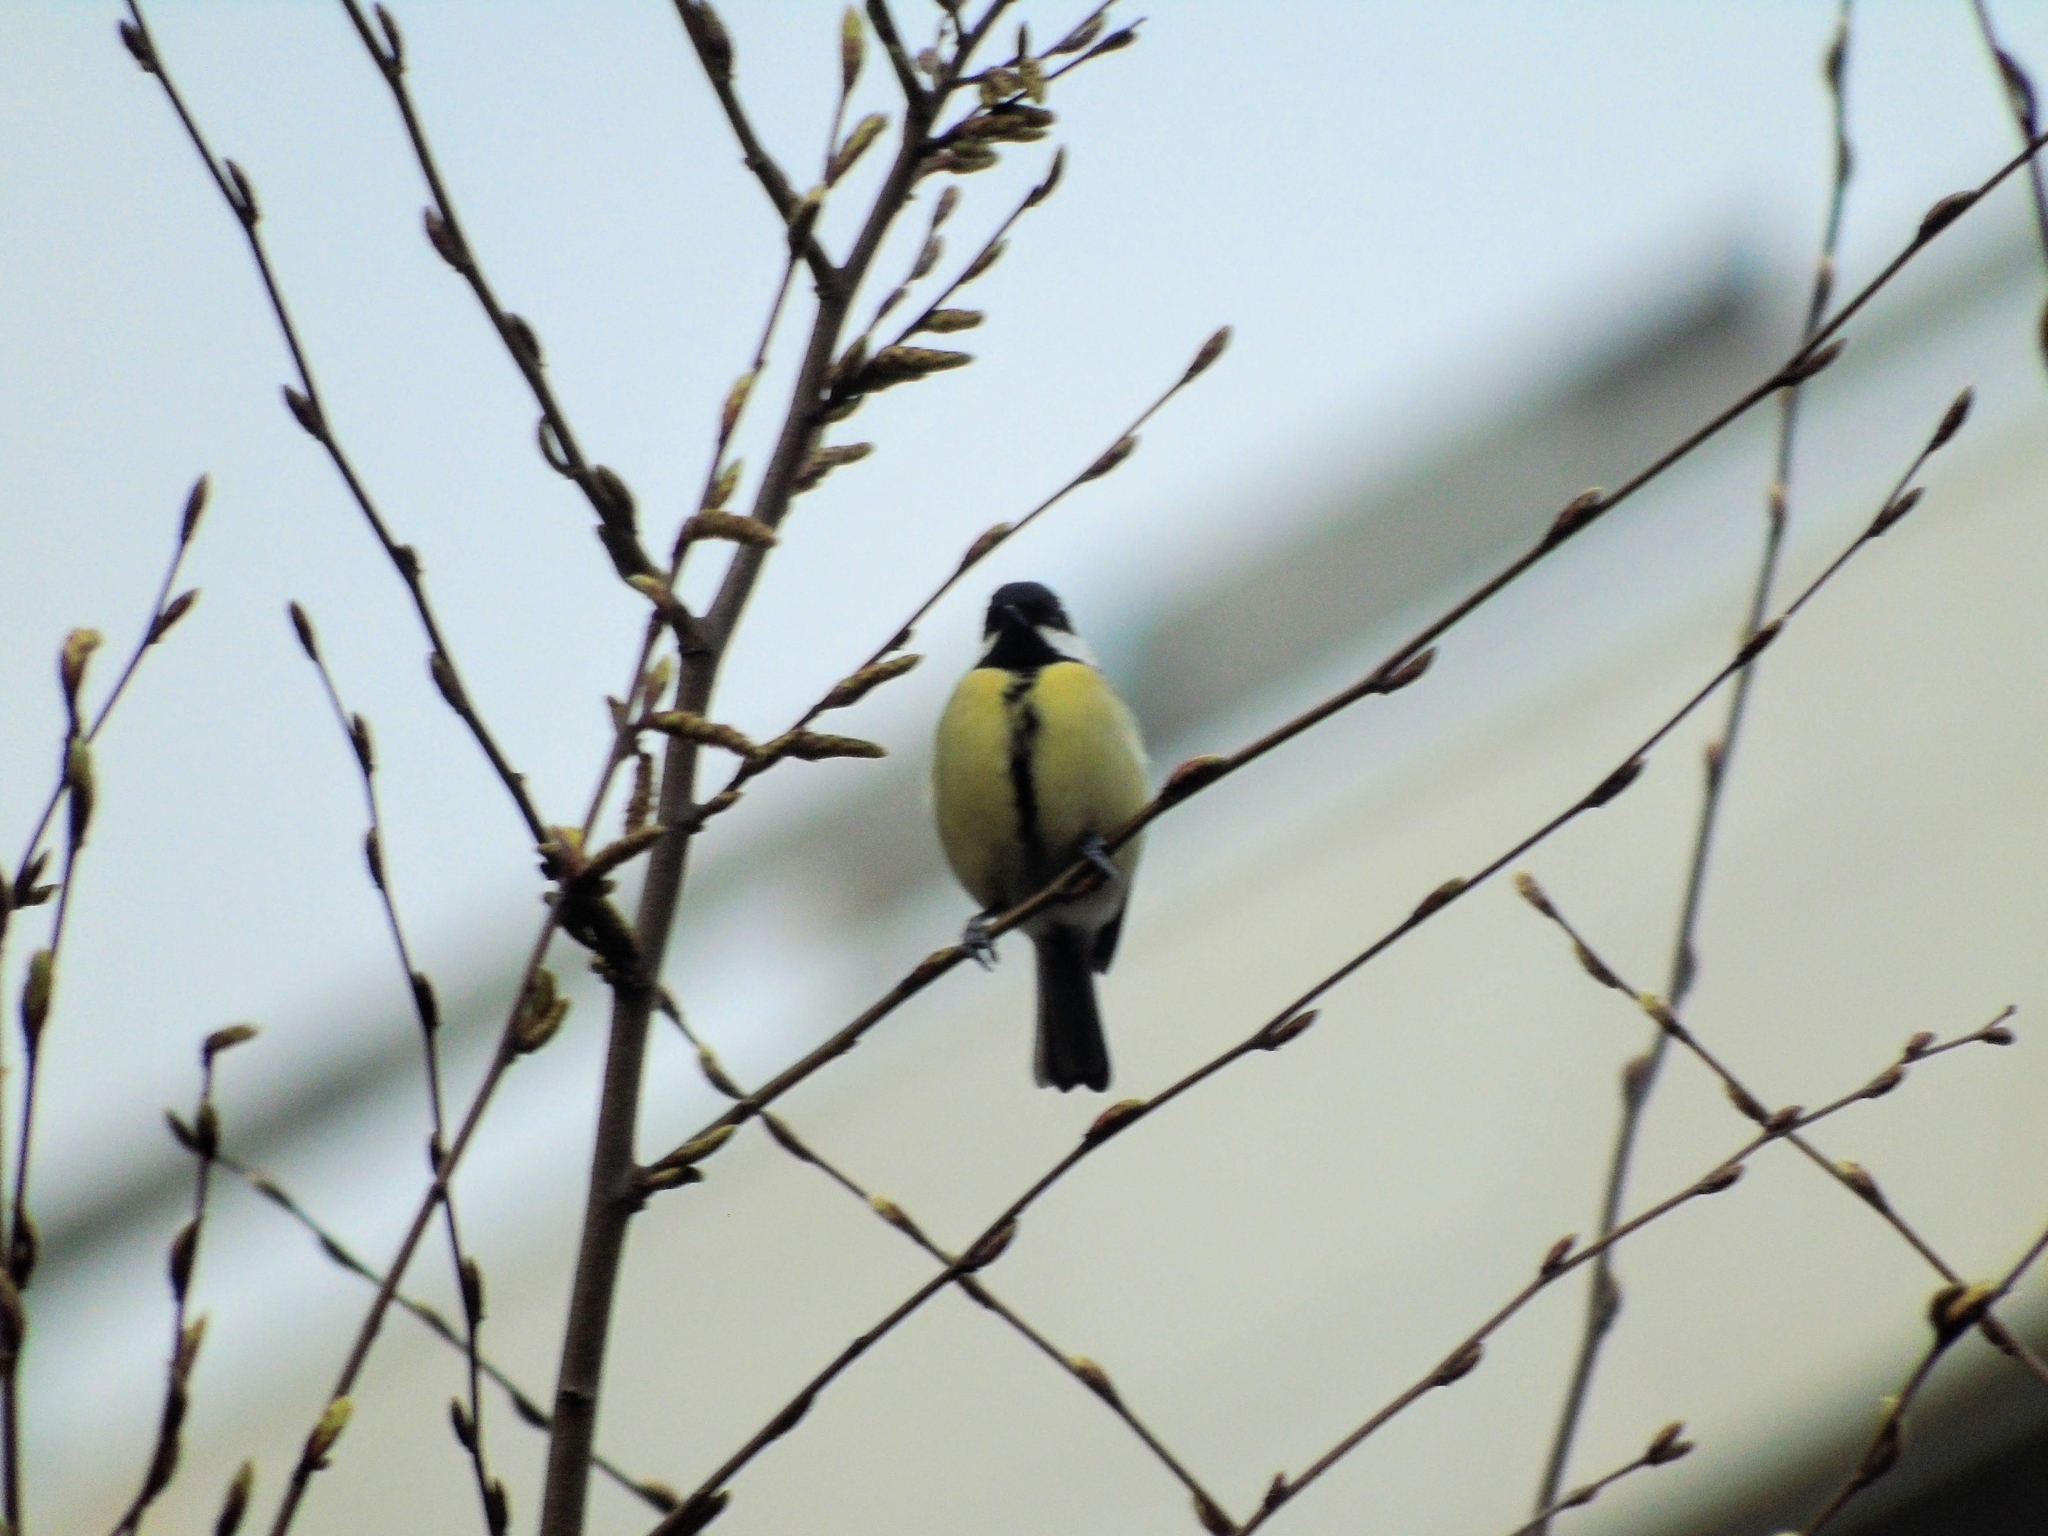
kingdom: Animalia
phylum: Chordata
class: Aves
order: Passeriformes
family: Paridae
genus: Parus
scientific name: Parus major
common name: Great tit
